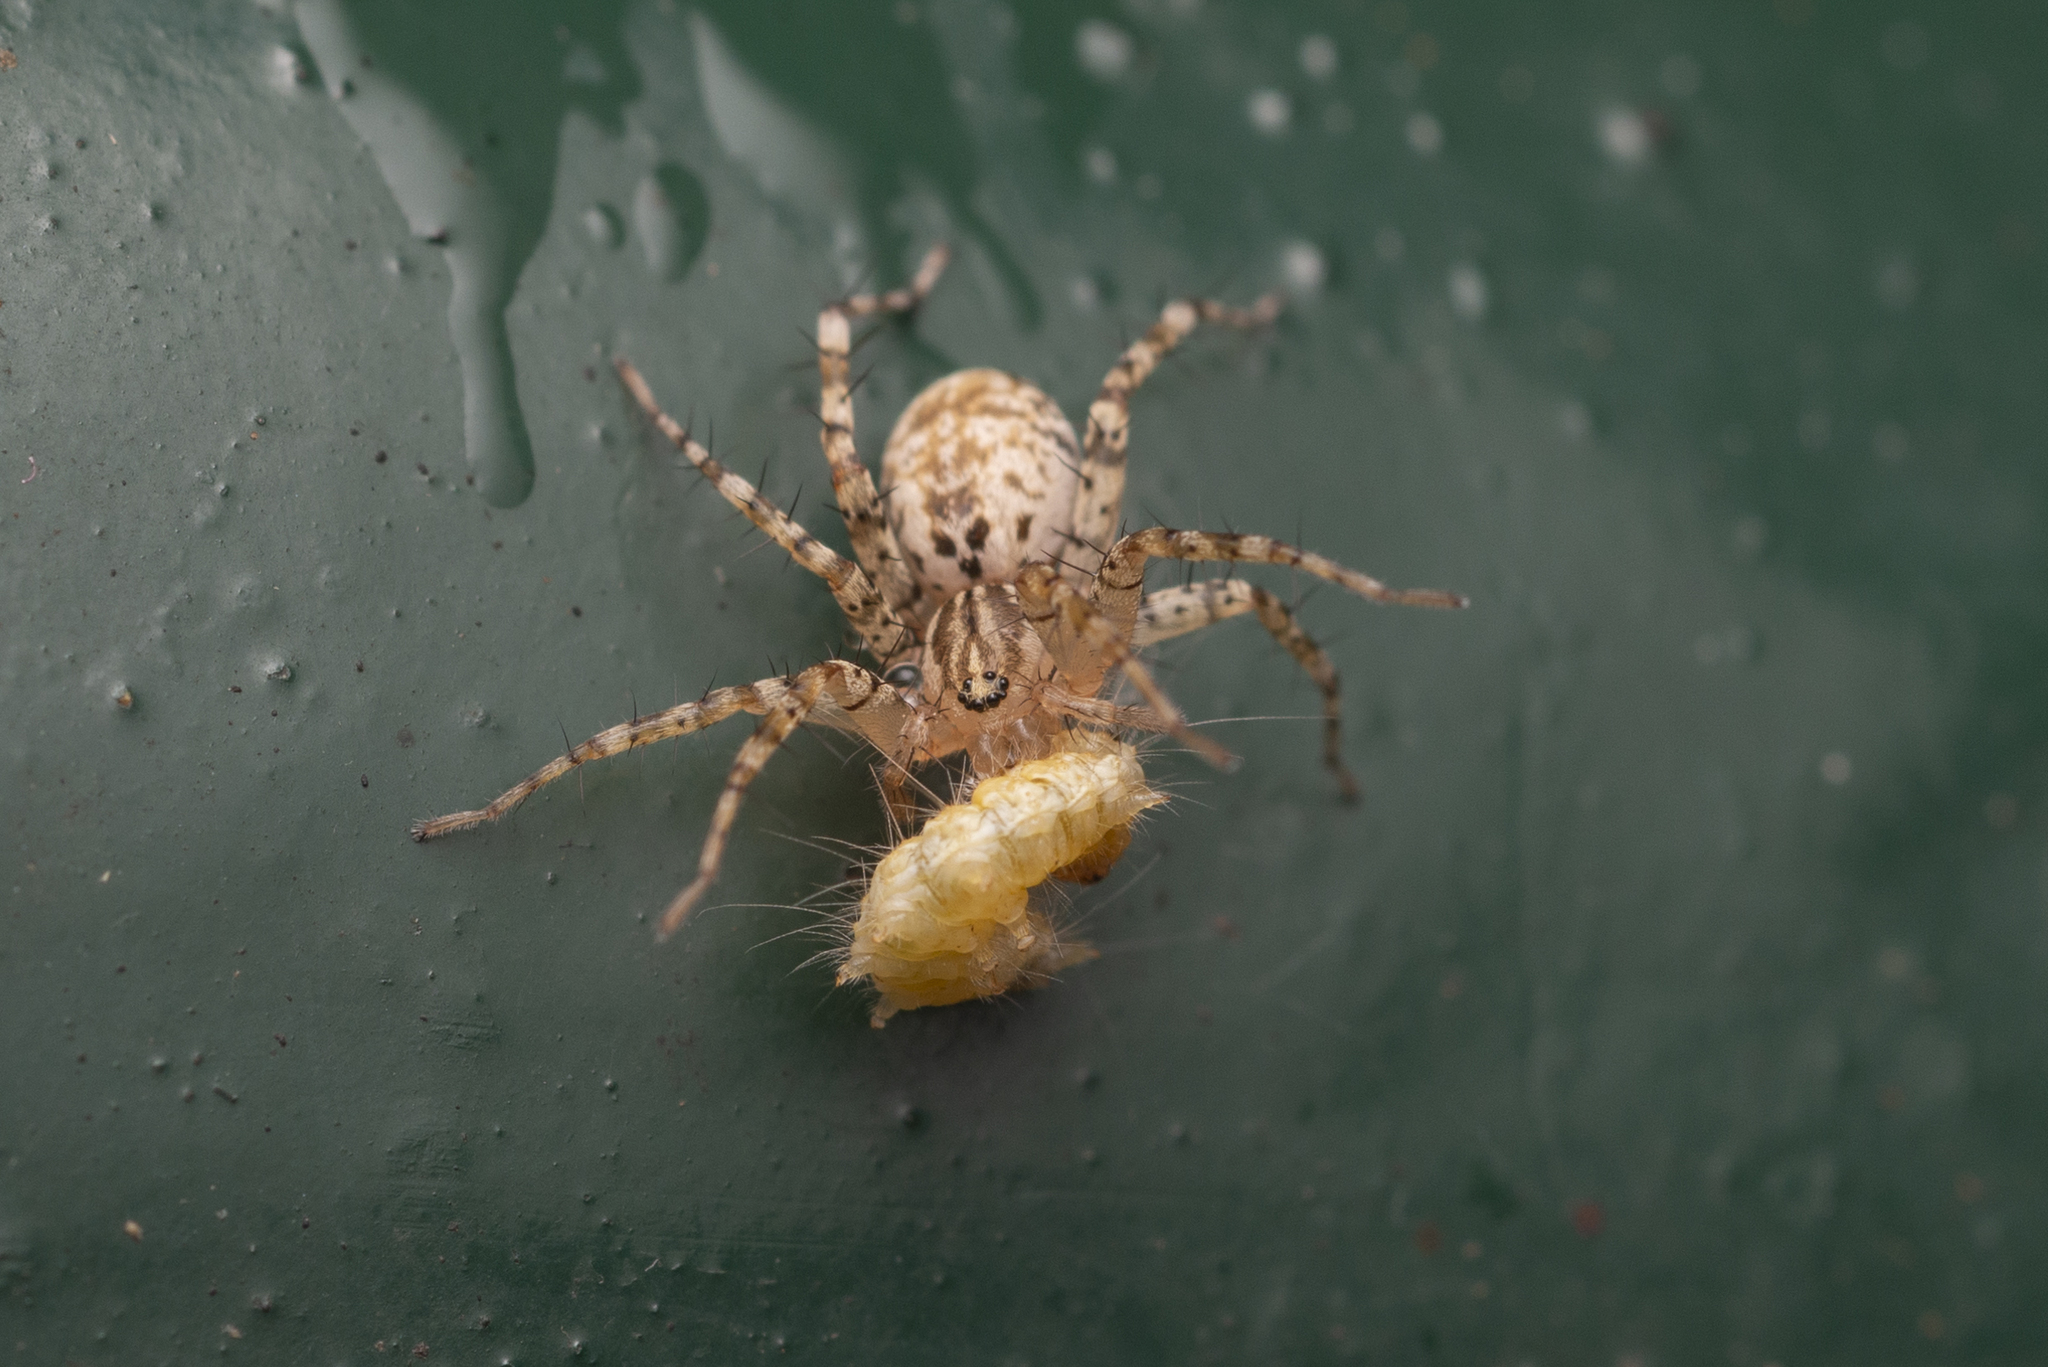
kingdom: Animalia
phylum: Arthropoda
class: Arachnida
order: Araneae
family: Corinnidae
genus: Echinax
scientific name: Echinax panache
